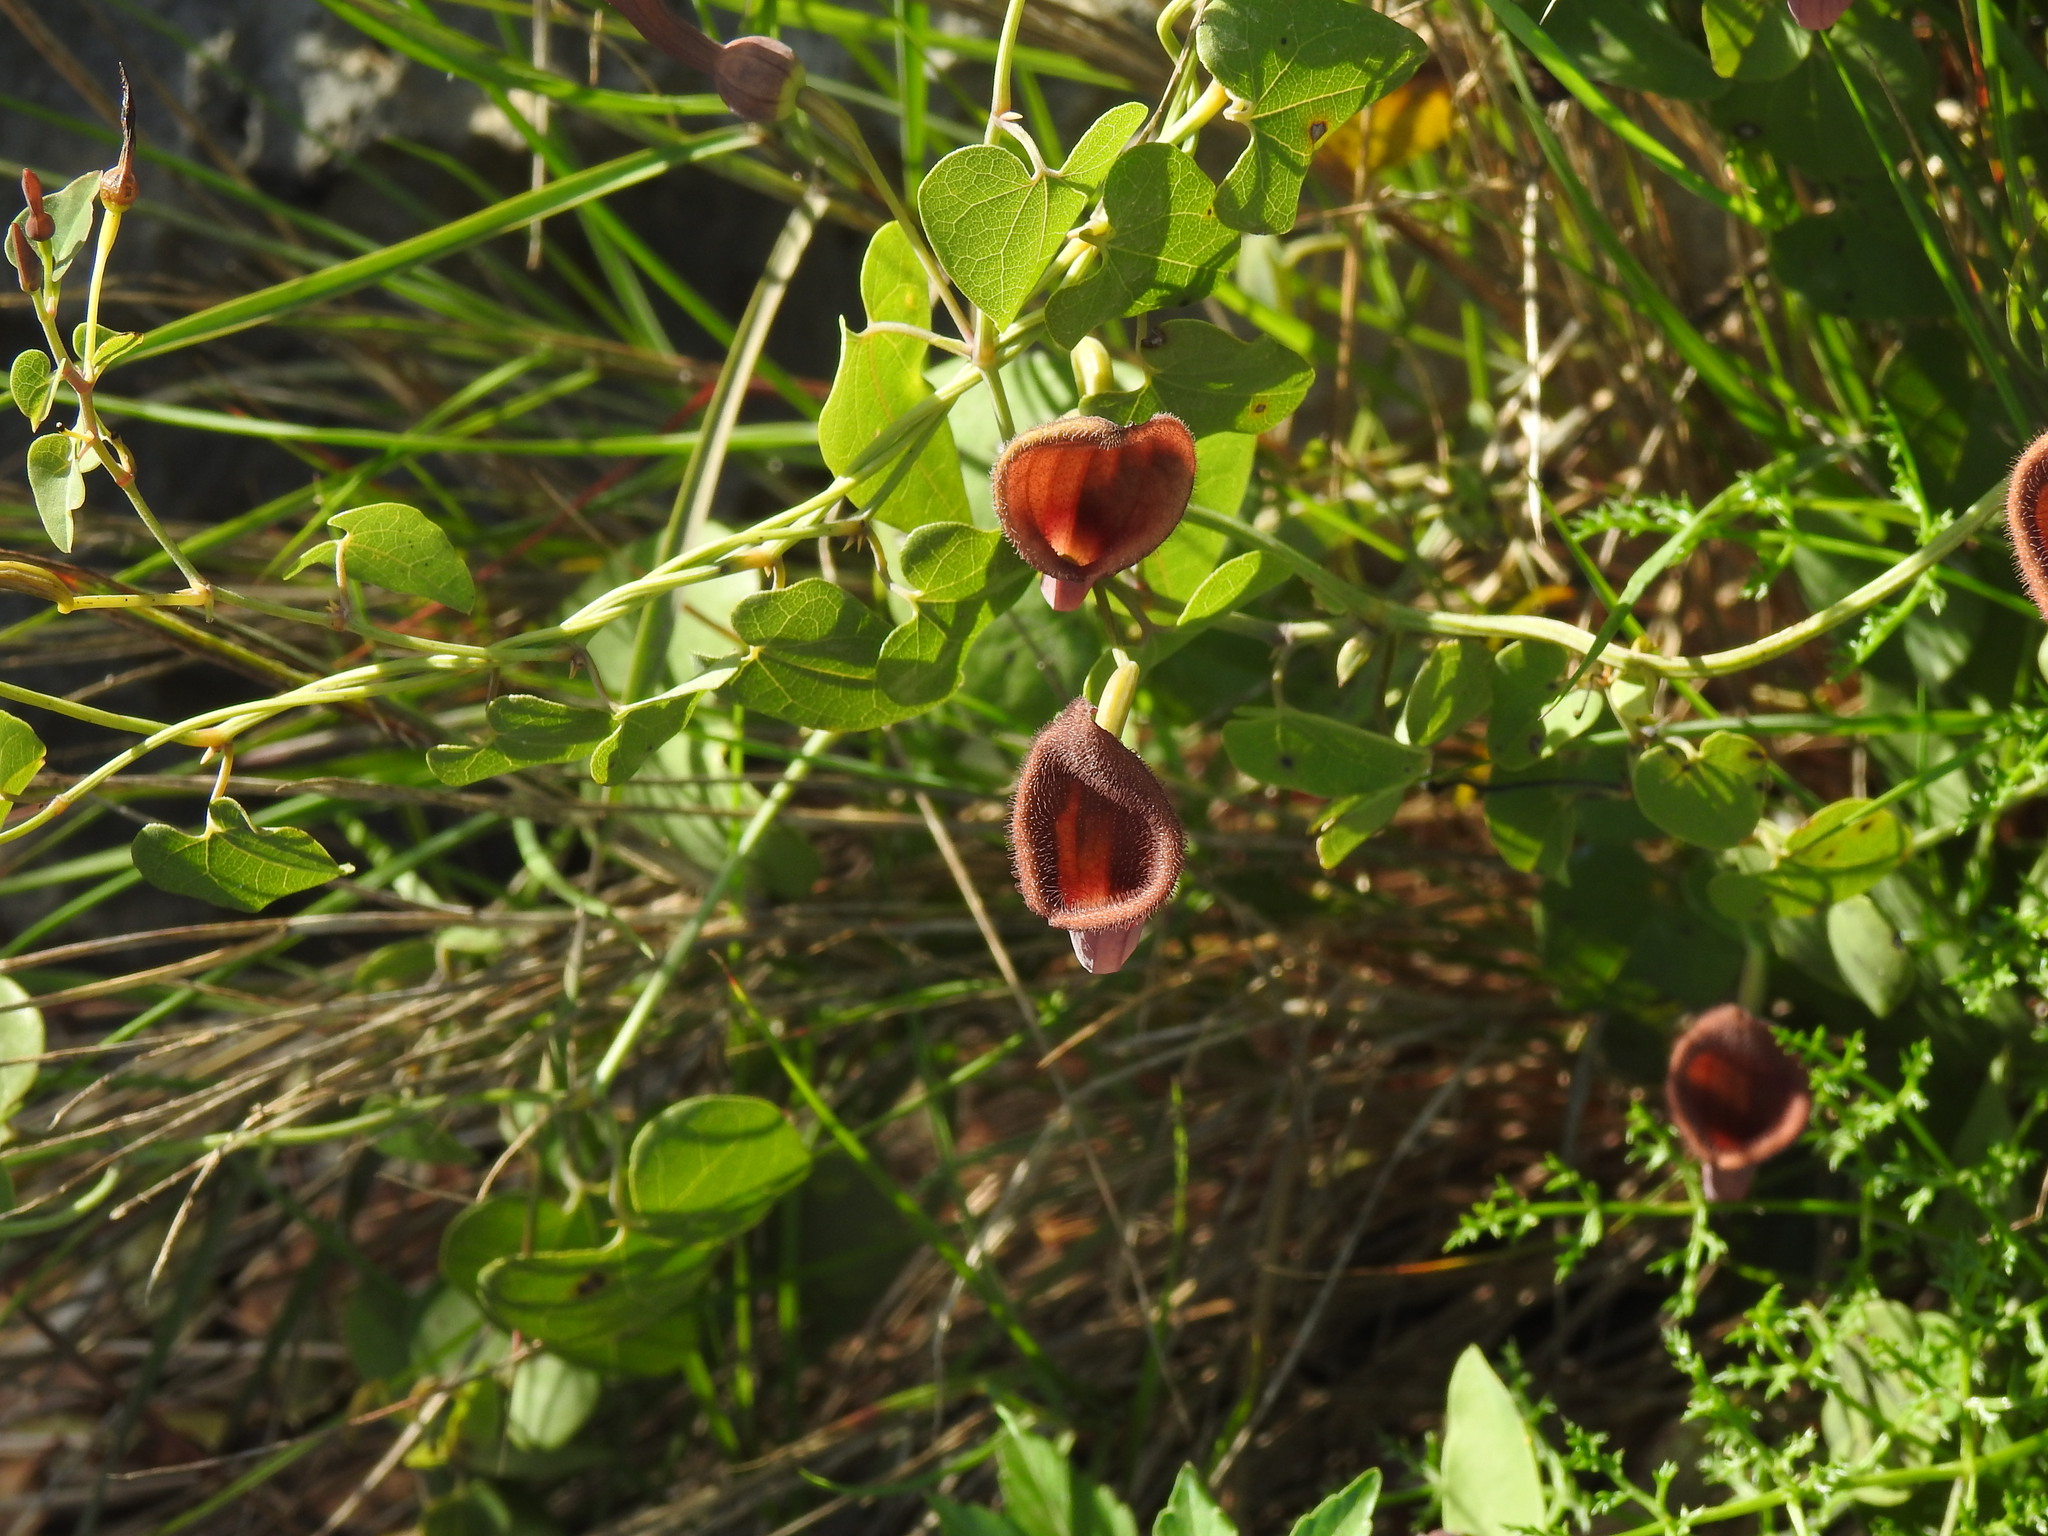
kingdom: Plantae
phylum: Tracheophyta
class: Magnoliopsida
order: Piperales
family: Aristolochiaceae
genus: Aristolochia
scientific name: Aristolochia baetica
